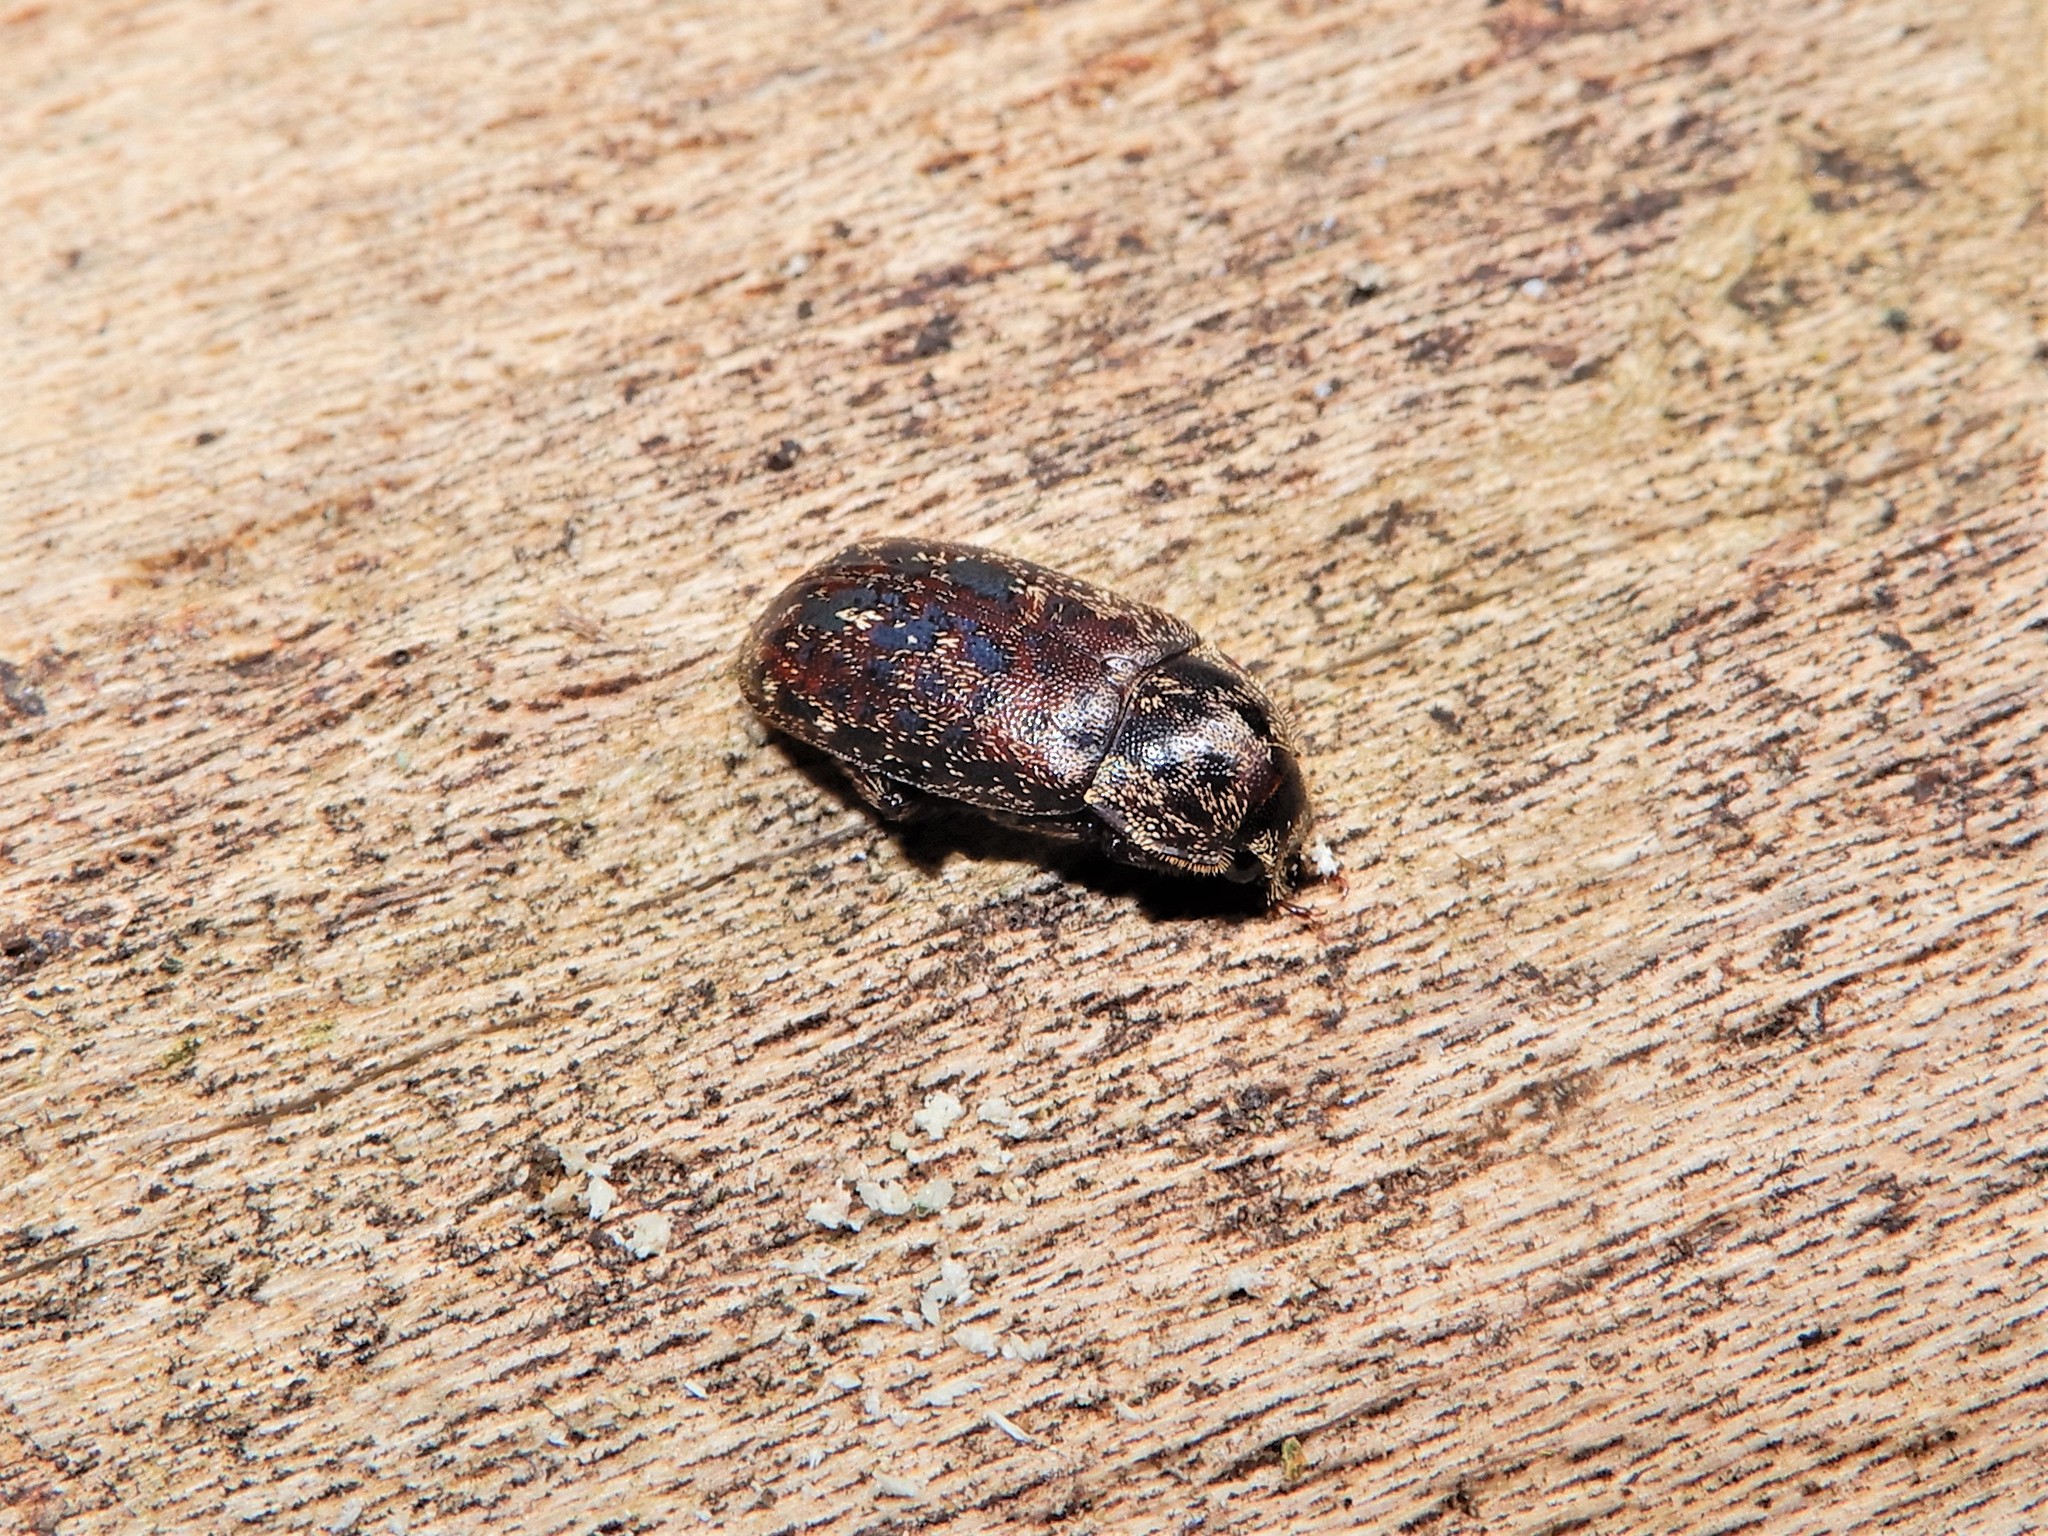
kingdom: Animalia
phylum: Arthropoda
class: Insecta
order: Coleoptera
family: Lucanidae
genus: Mitophyllus
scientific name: Mitophyllus irroratus
